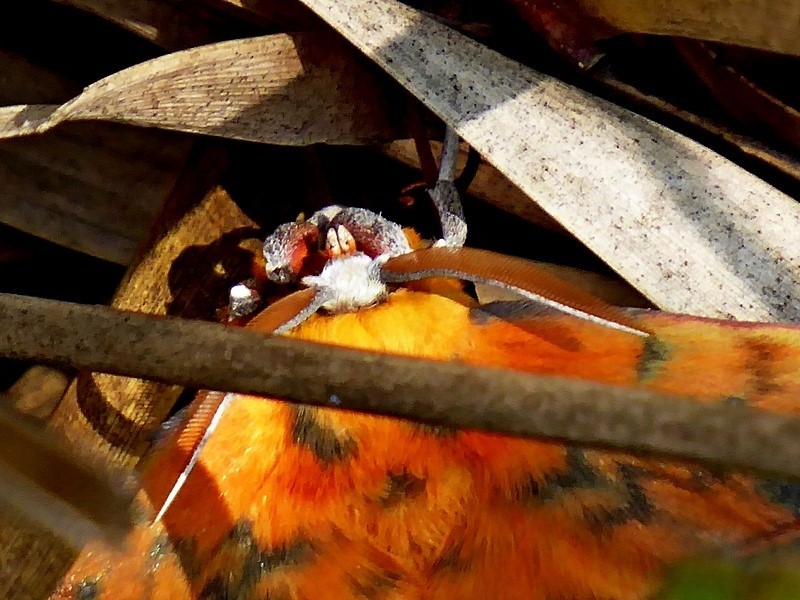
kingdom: Animalia
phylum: Arthropoda
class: Insecta
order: Lepidoptera
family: Anthelidae
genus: Anthela
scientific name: Anthela excellens
